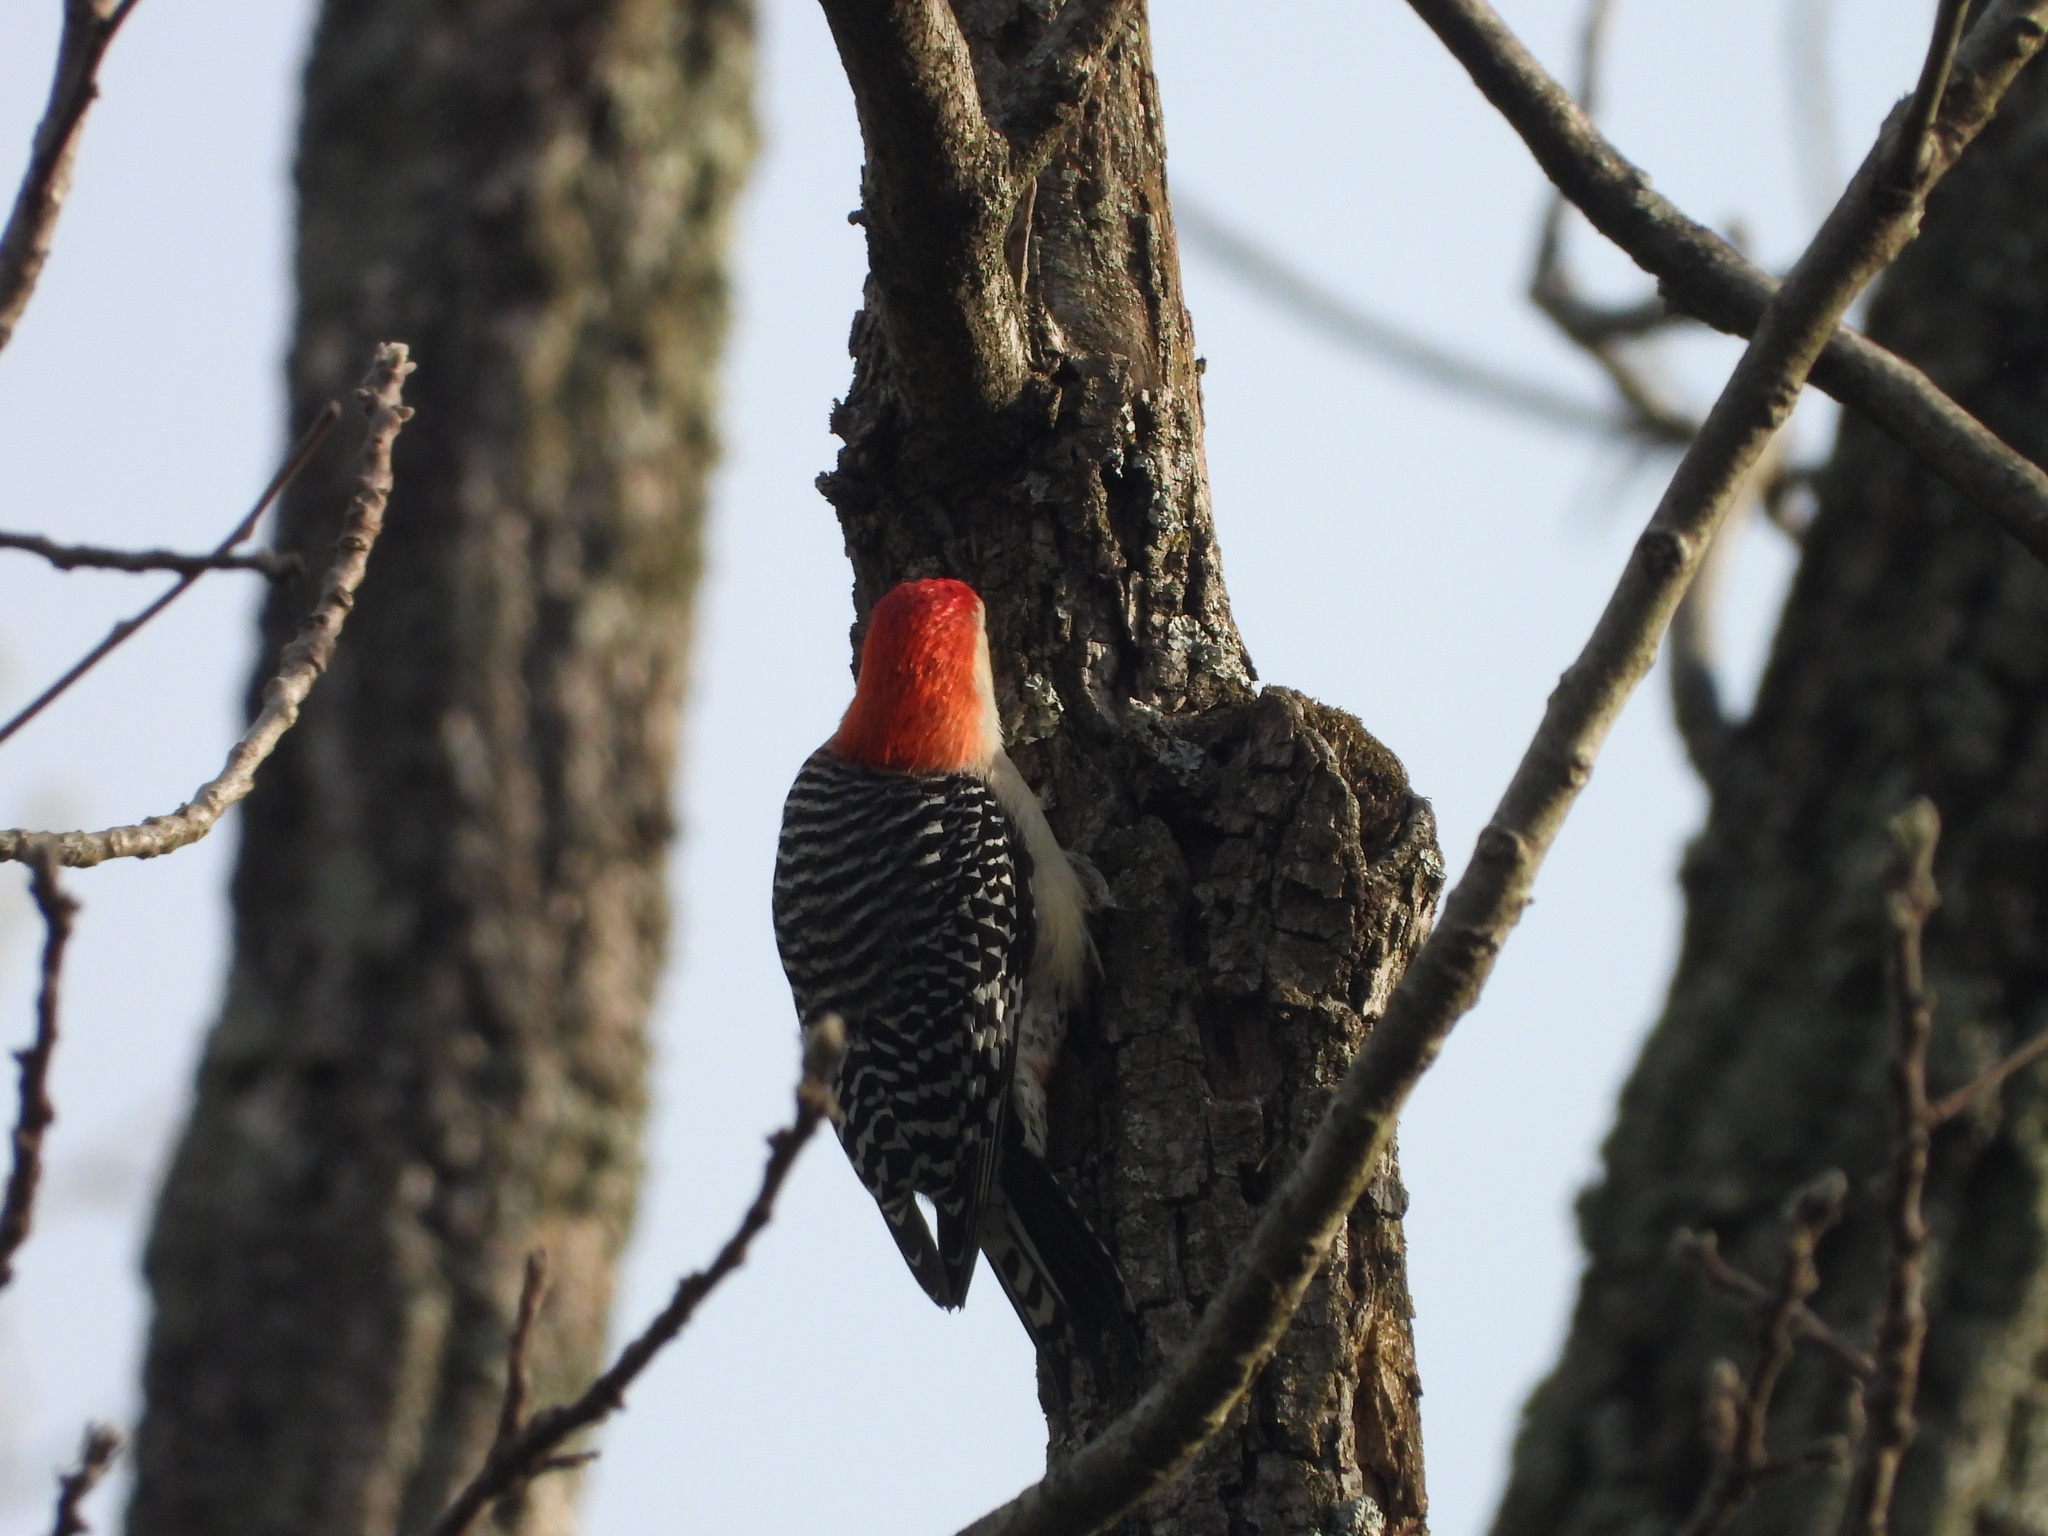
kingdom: Animalia
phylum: Chordata
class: Aves
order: Piciformes
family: Picidae
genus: Melanerpes
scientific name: Melanerpes carolinus
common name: Red-bellied woodpecker
